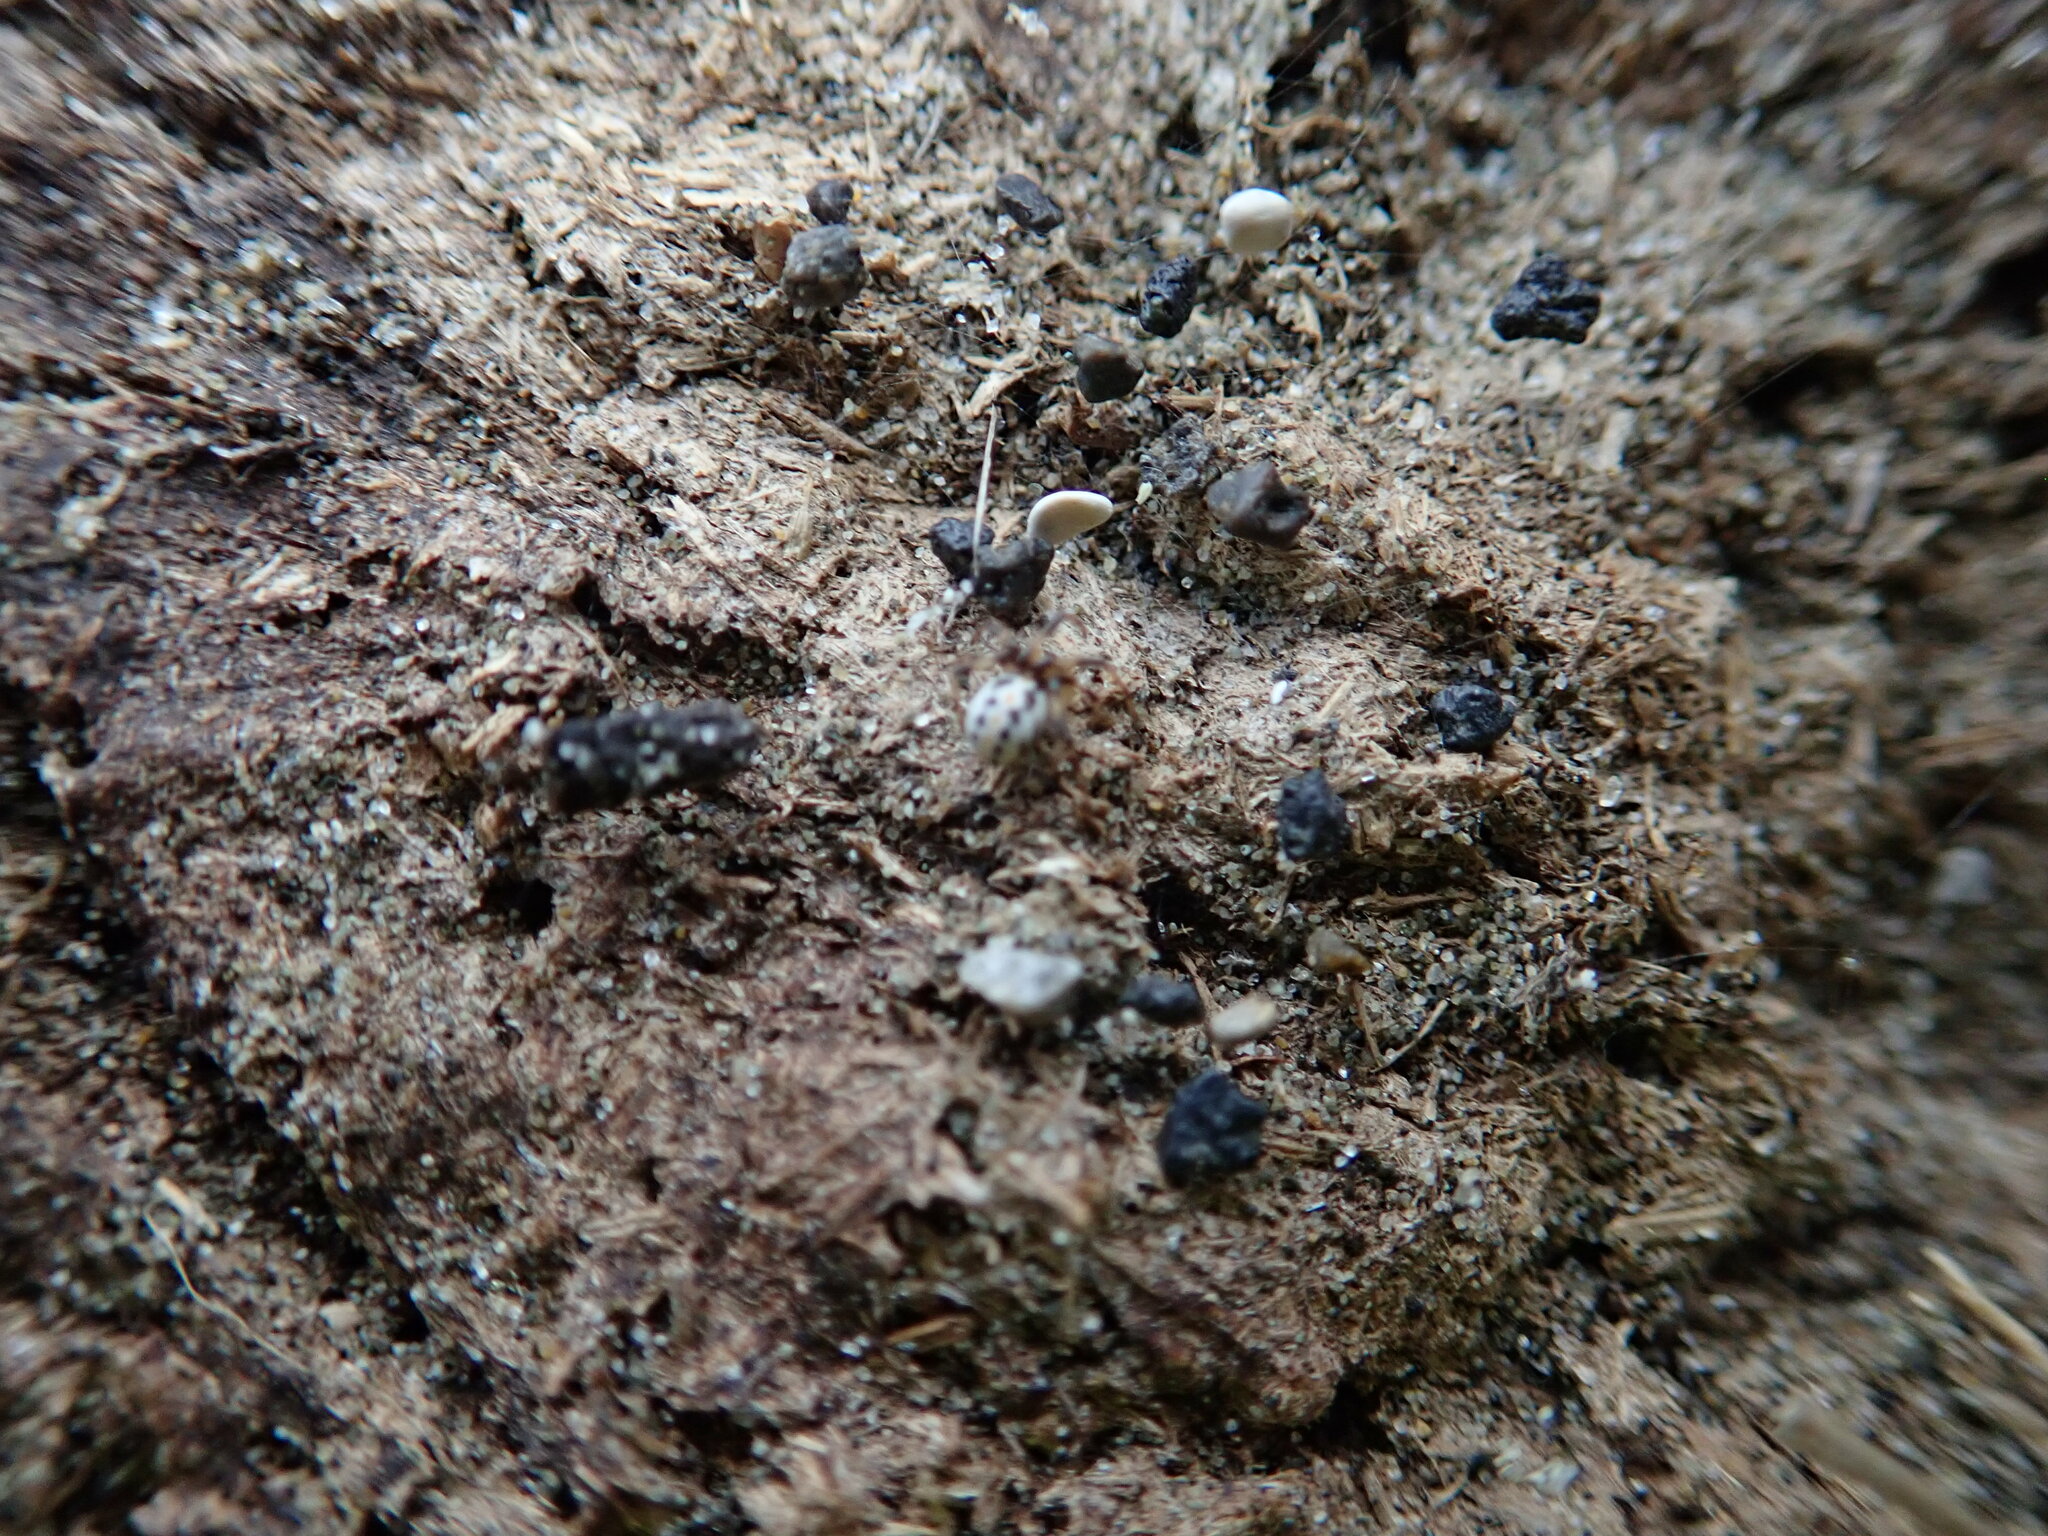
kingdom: Animalia
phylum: Arthropoda
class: Arachnida
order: Araneae
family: Theridiidae
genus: Latrodectus
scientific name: Latrodectus katipo
